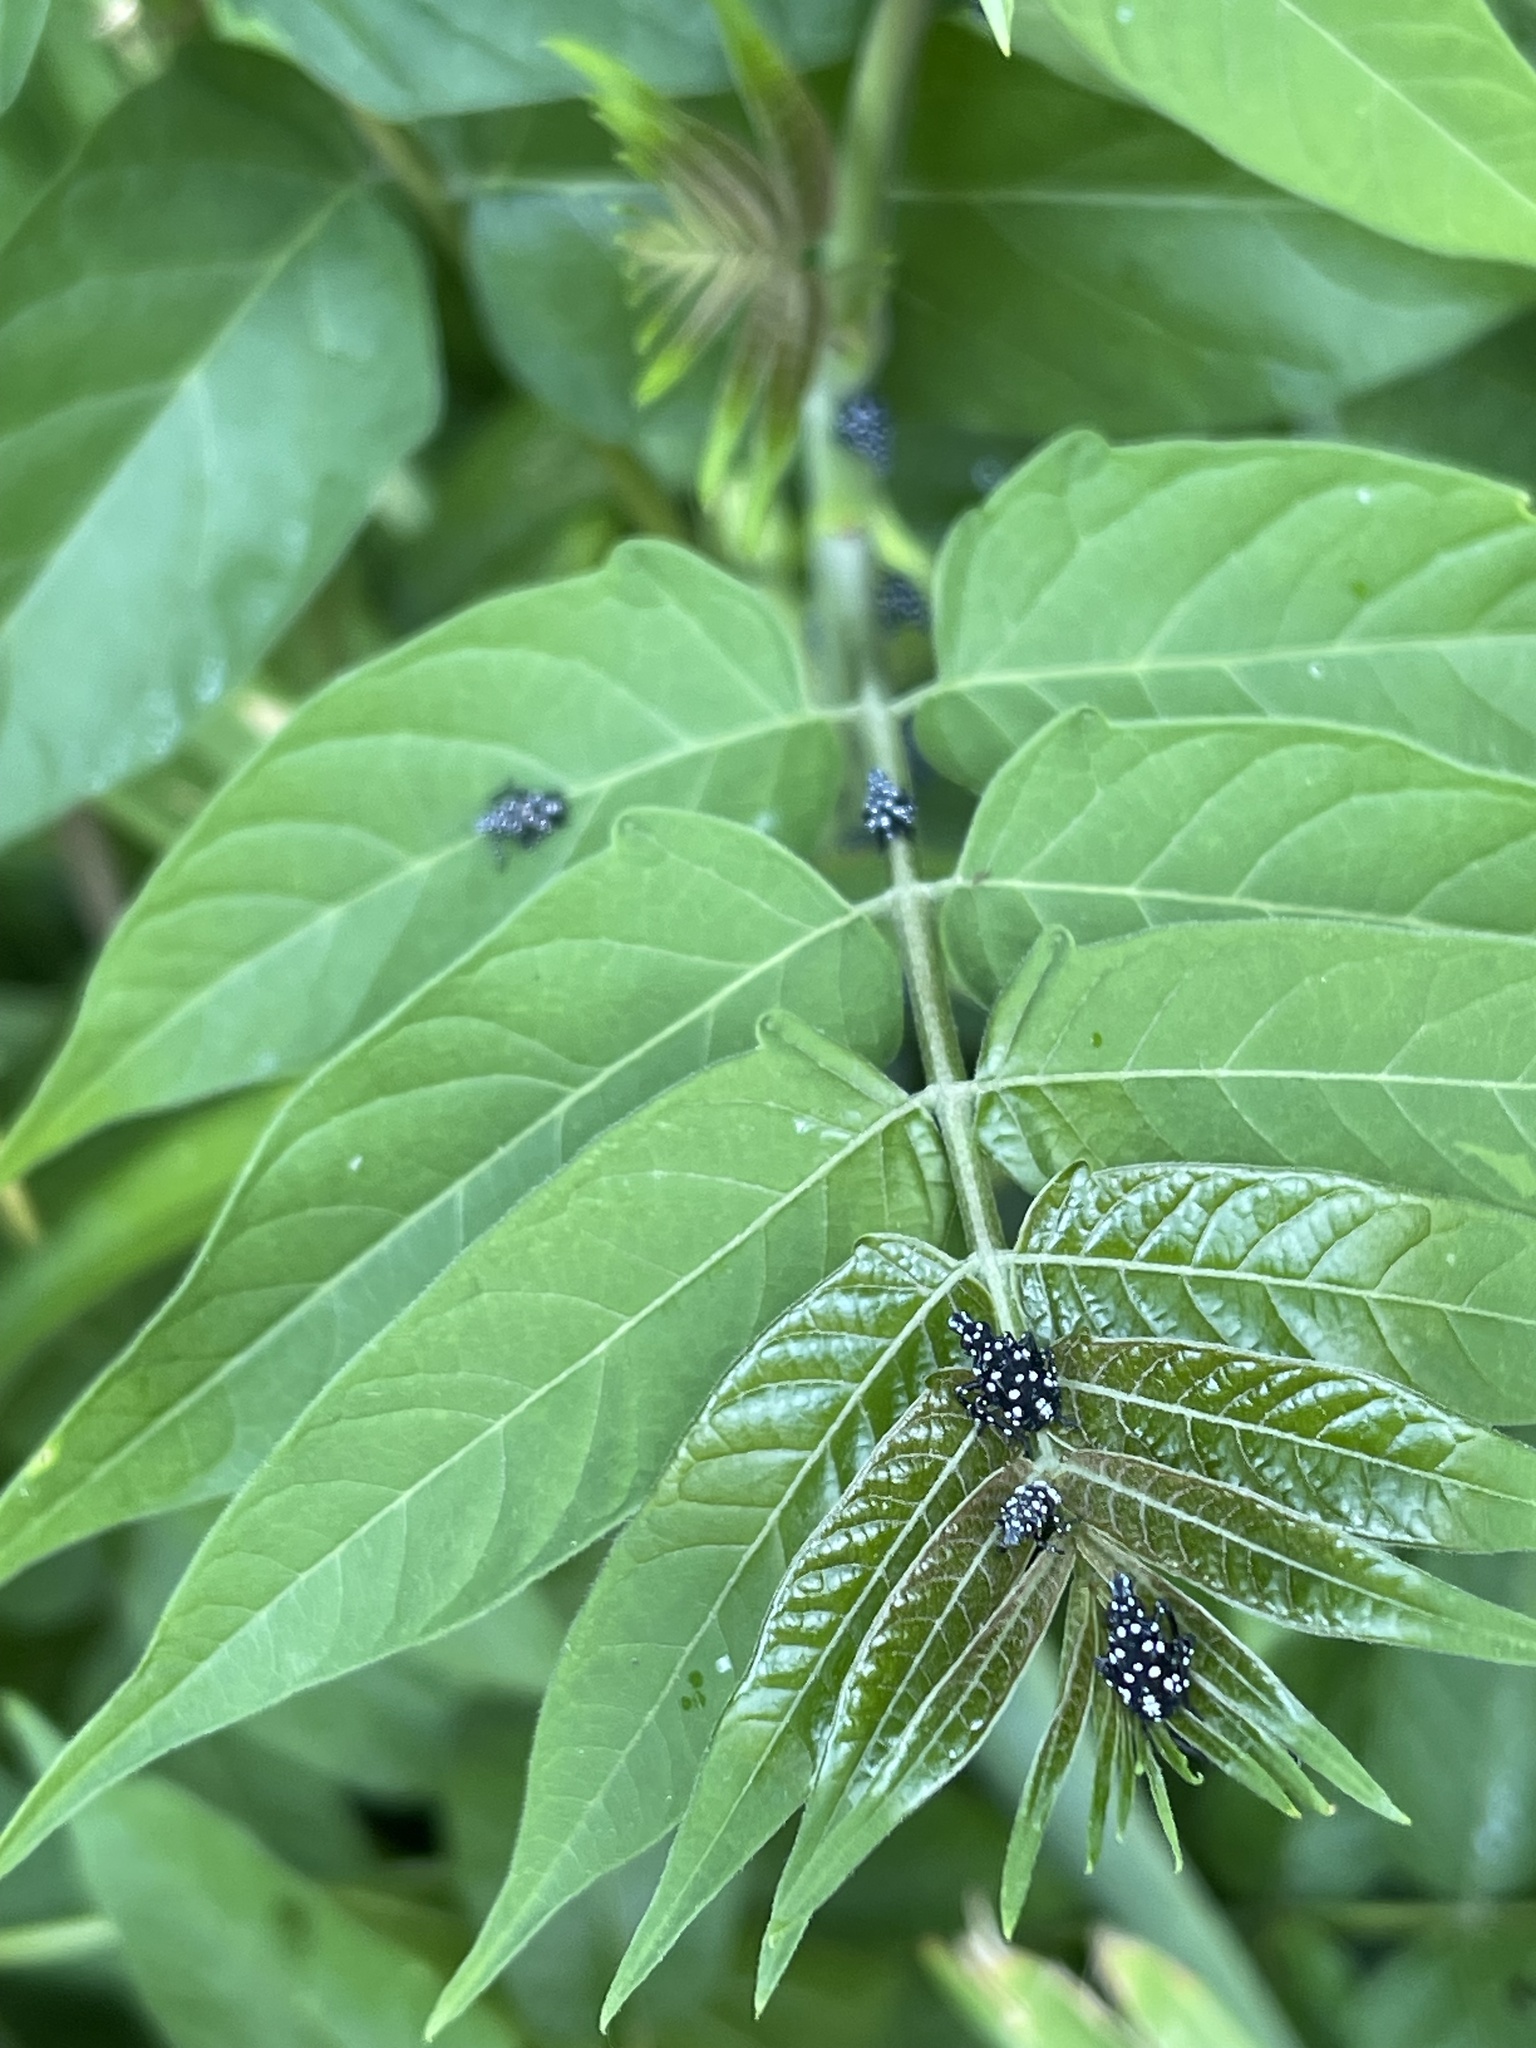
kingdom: Animalia
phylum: Arthropoda
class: Insecta
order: Hemiptera
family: Fulgoridae
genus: Lycorma
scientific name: Lycorma delicatula
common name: Spotted lanternfly
